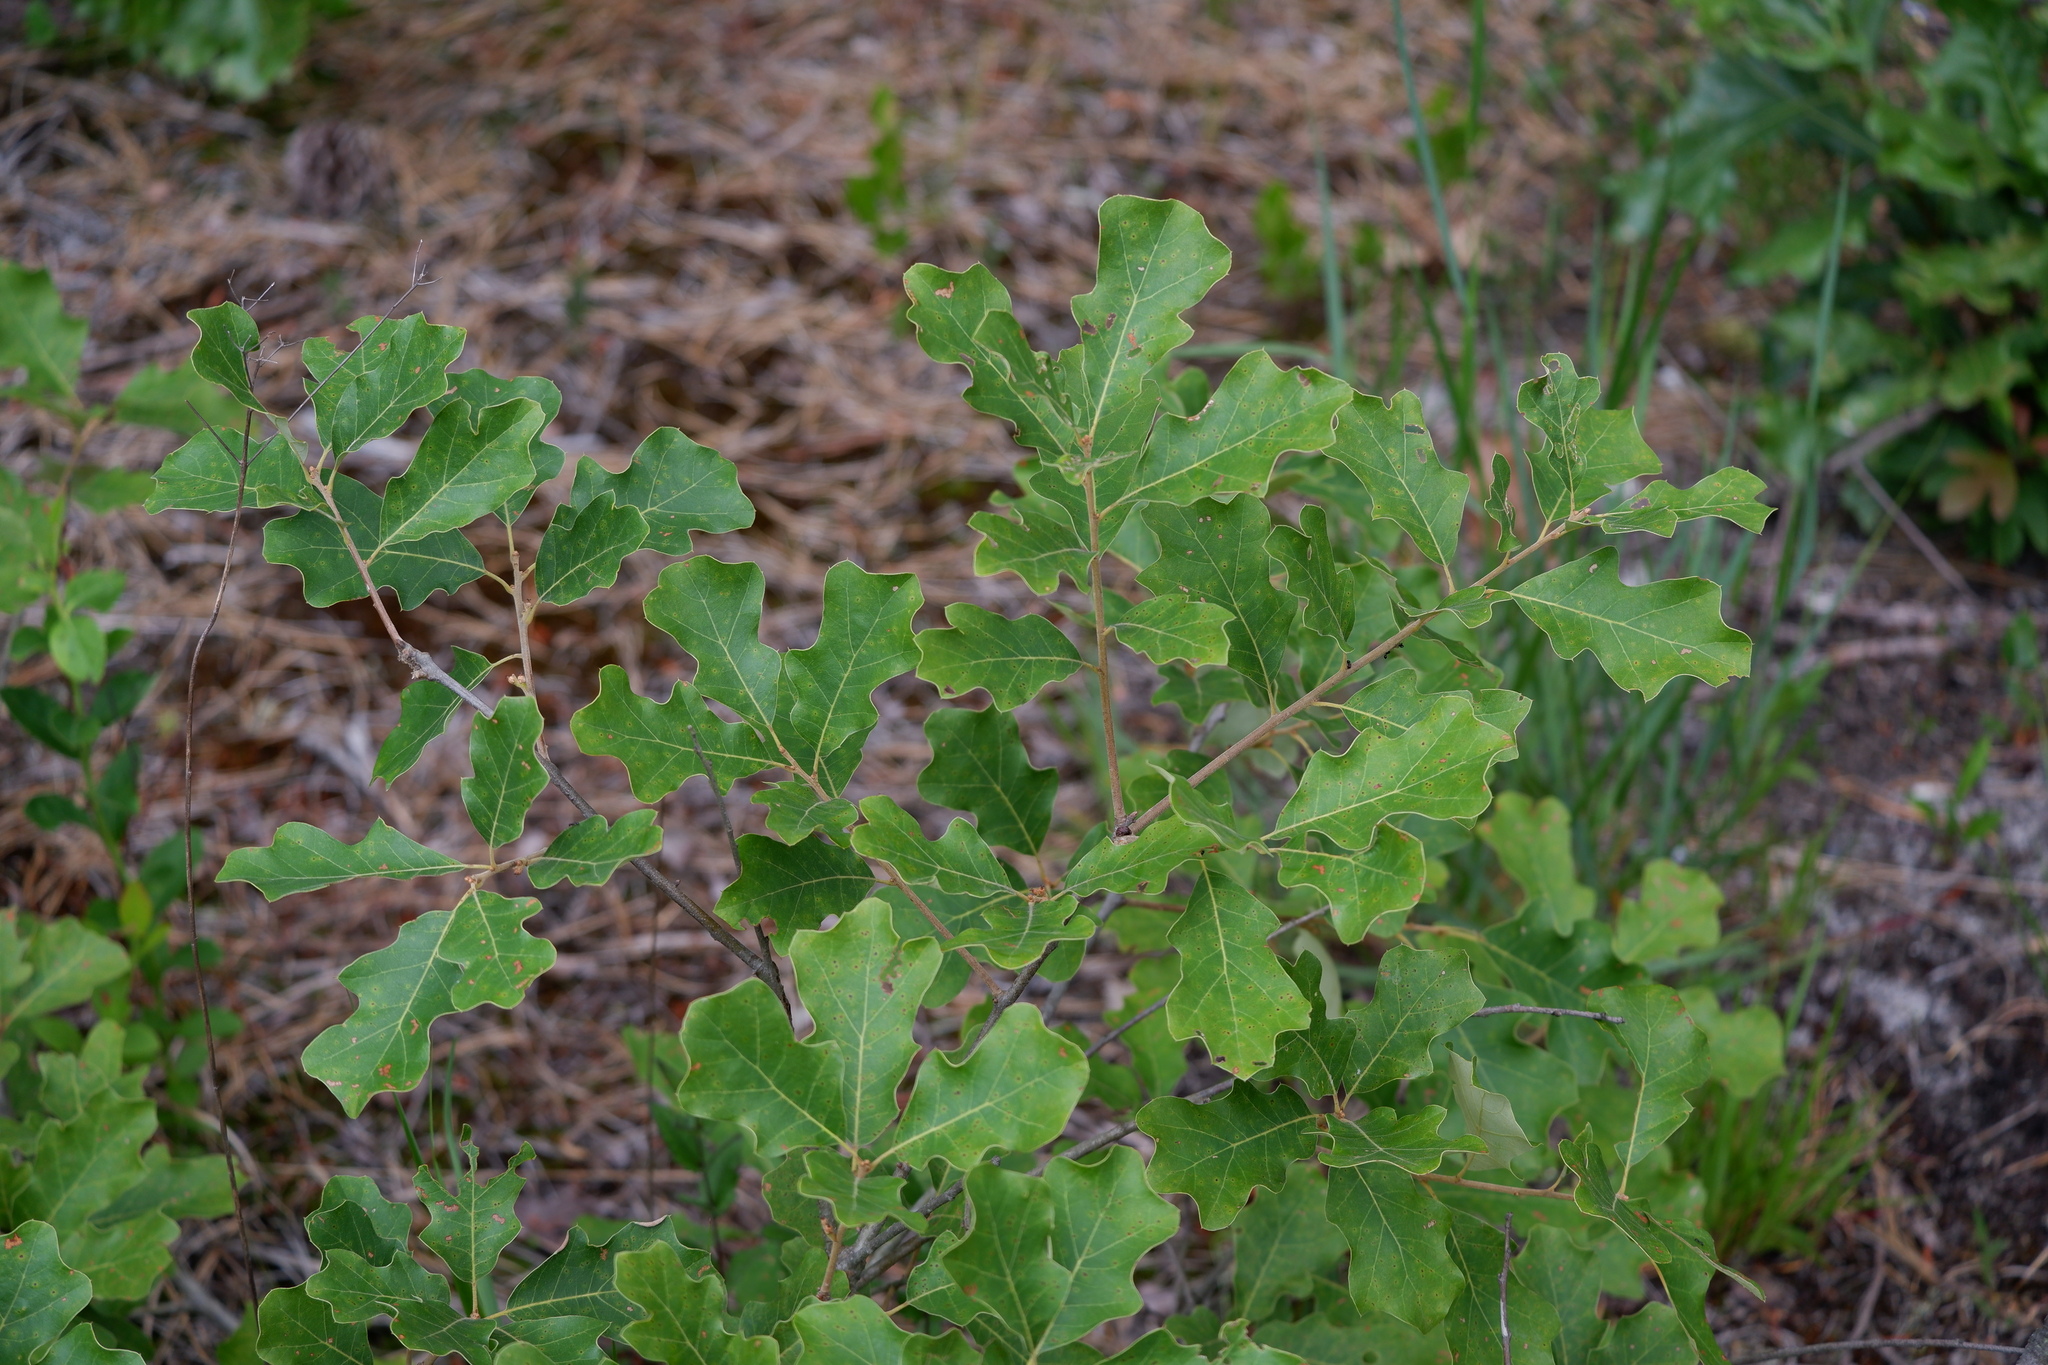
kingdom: Plantae
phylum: Tracheophyta
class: Magnoliopsida
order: Fagales
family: Fagaceae
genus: Quercus
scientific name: Quercus ilicifolia
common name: Bear oak
